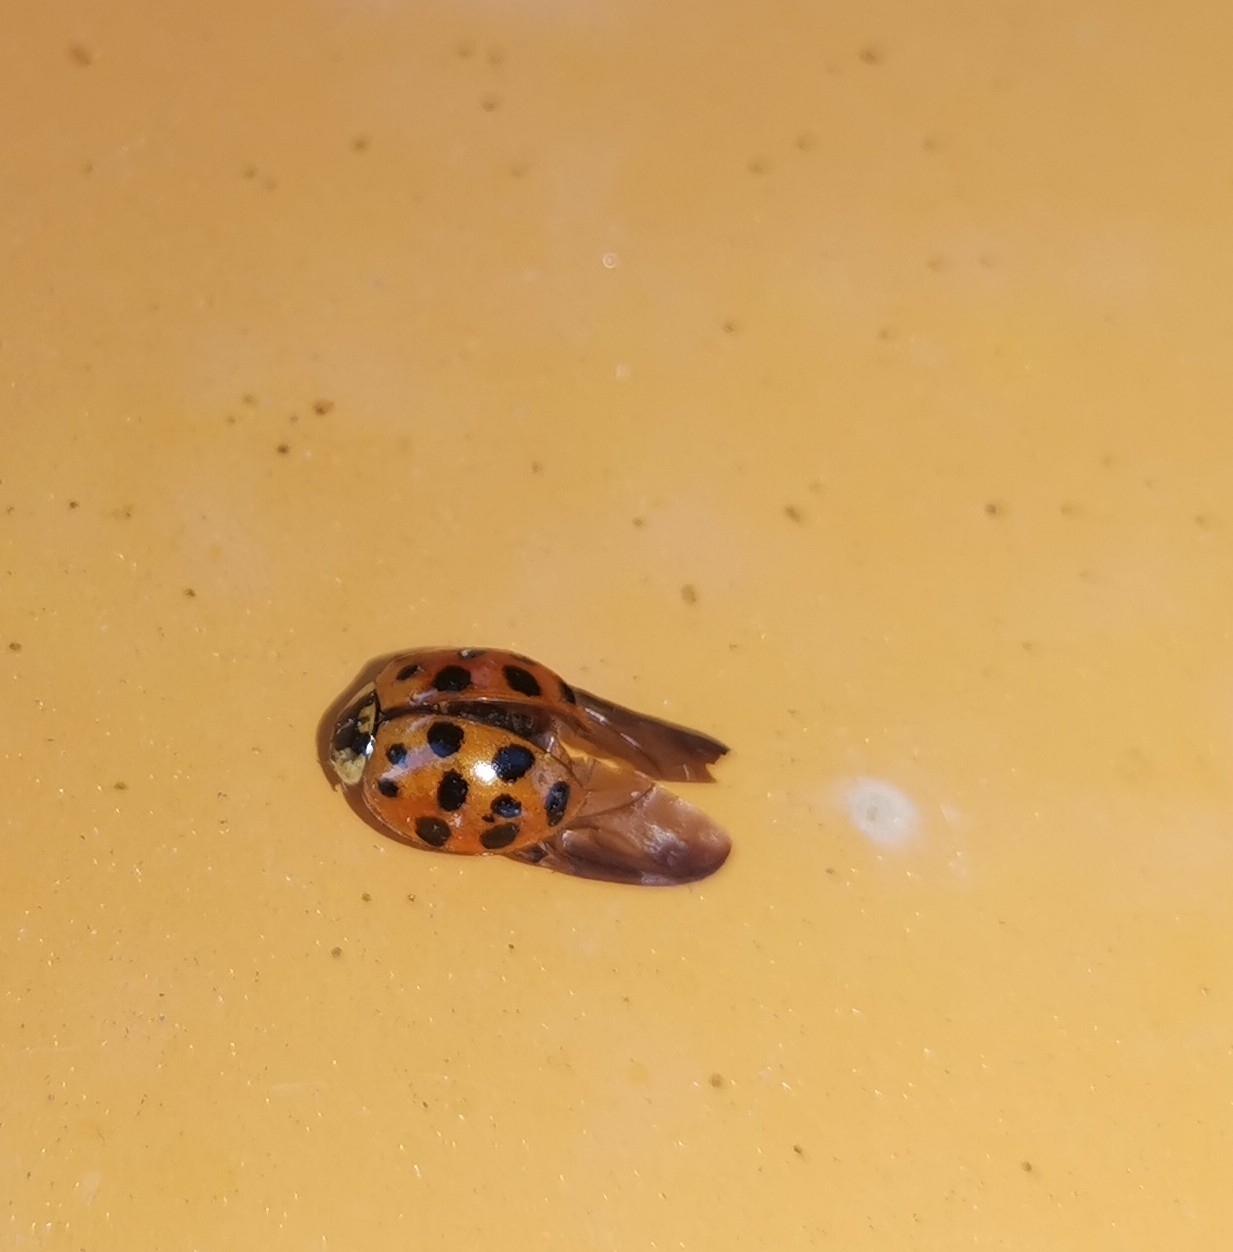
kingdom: Animalia
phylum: Arthropoda
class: Insecta
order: Coleoptera
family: Coccinellidae
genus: Harmonia
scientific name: Harmonia axyridis
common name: Harlequin ladybird
